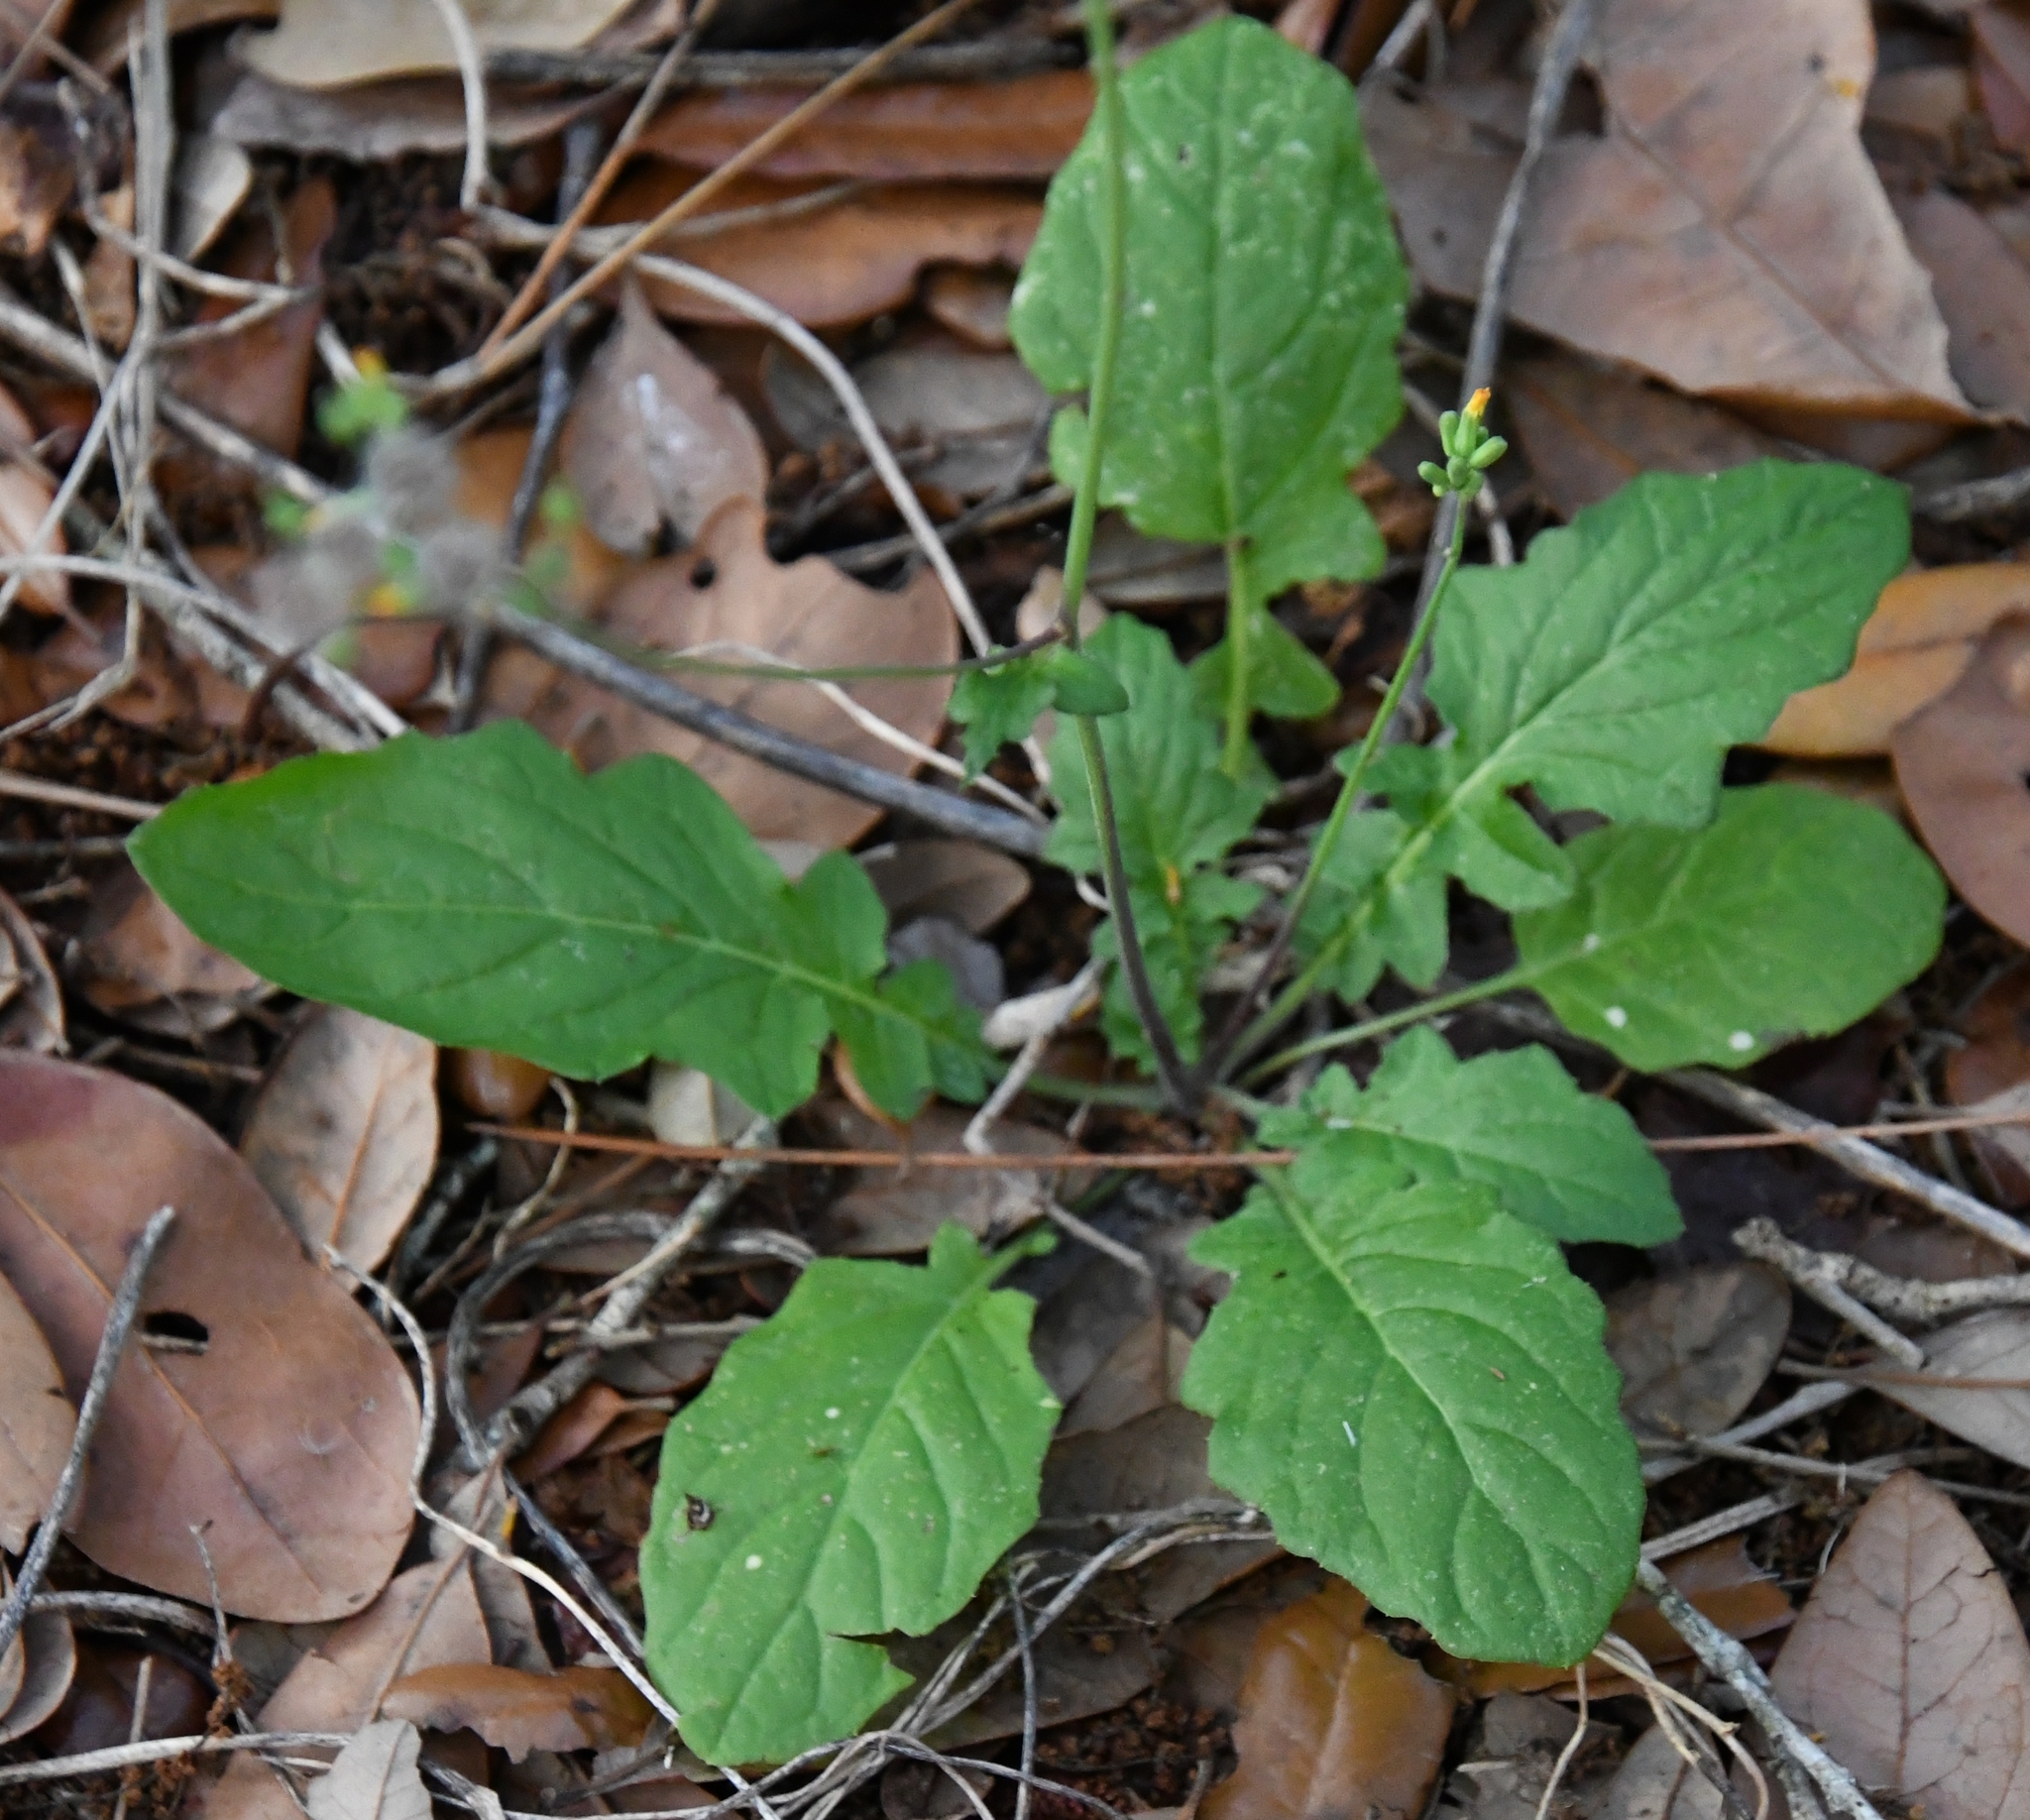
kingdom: Plantae
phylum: Tracheophyta
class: Magnoliopsida
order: Asterales
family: Asteraceae
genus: Youngia
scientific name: Youngia japonica
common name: Oriental false hawksbeard
